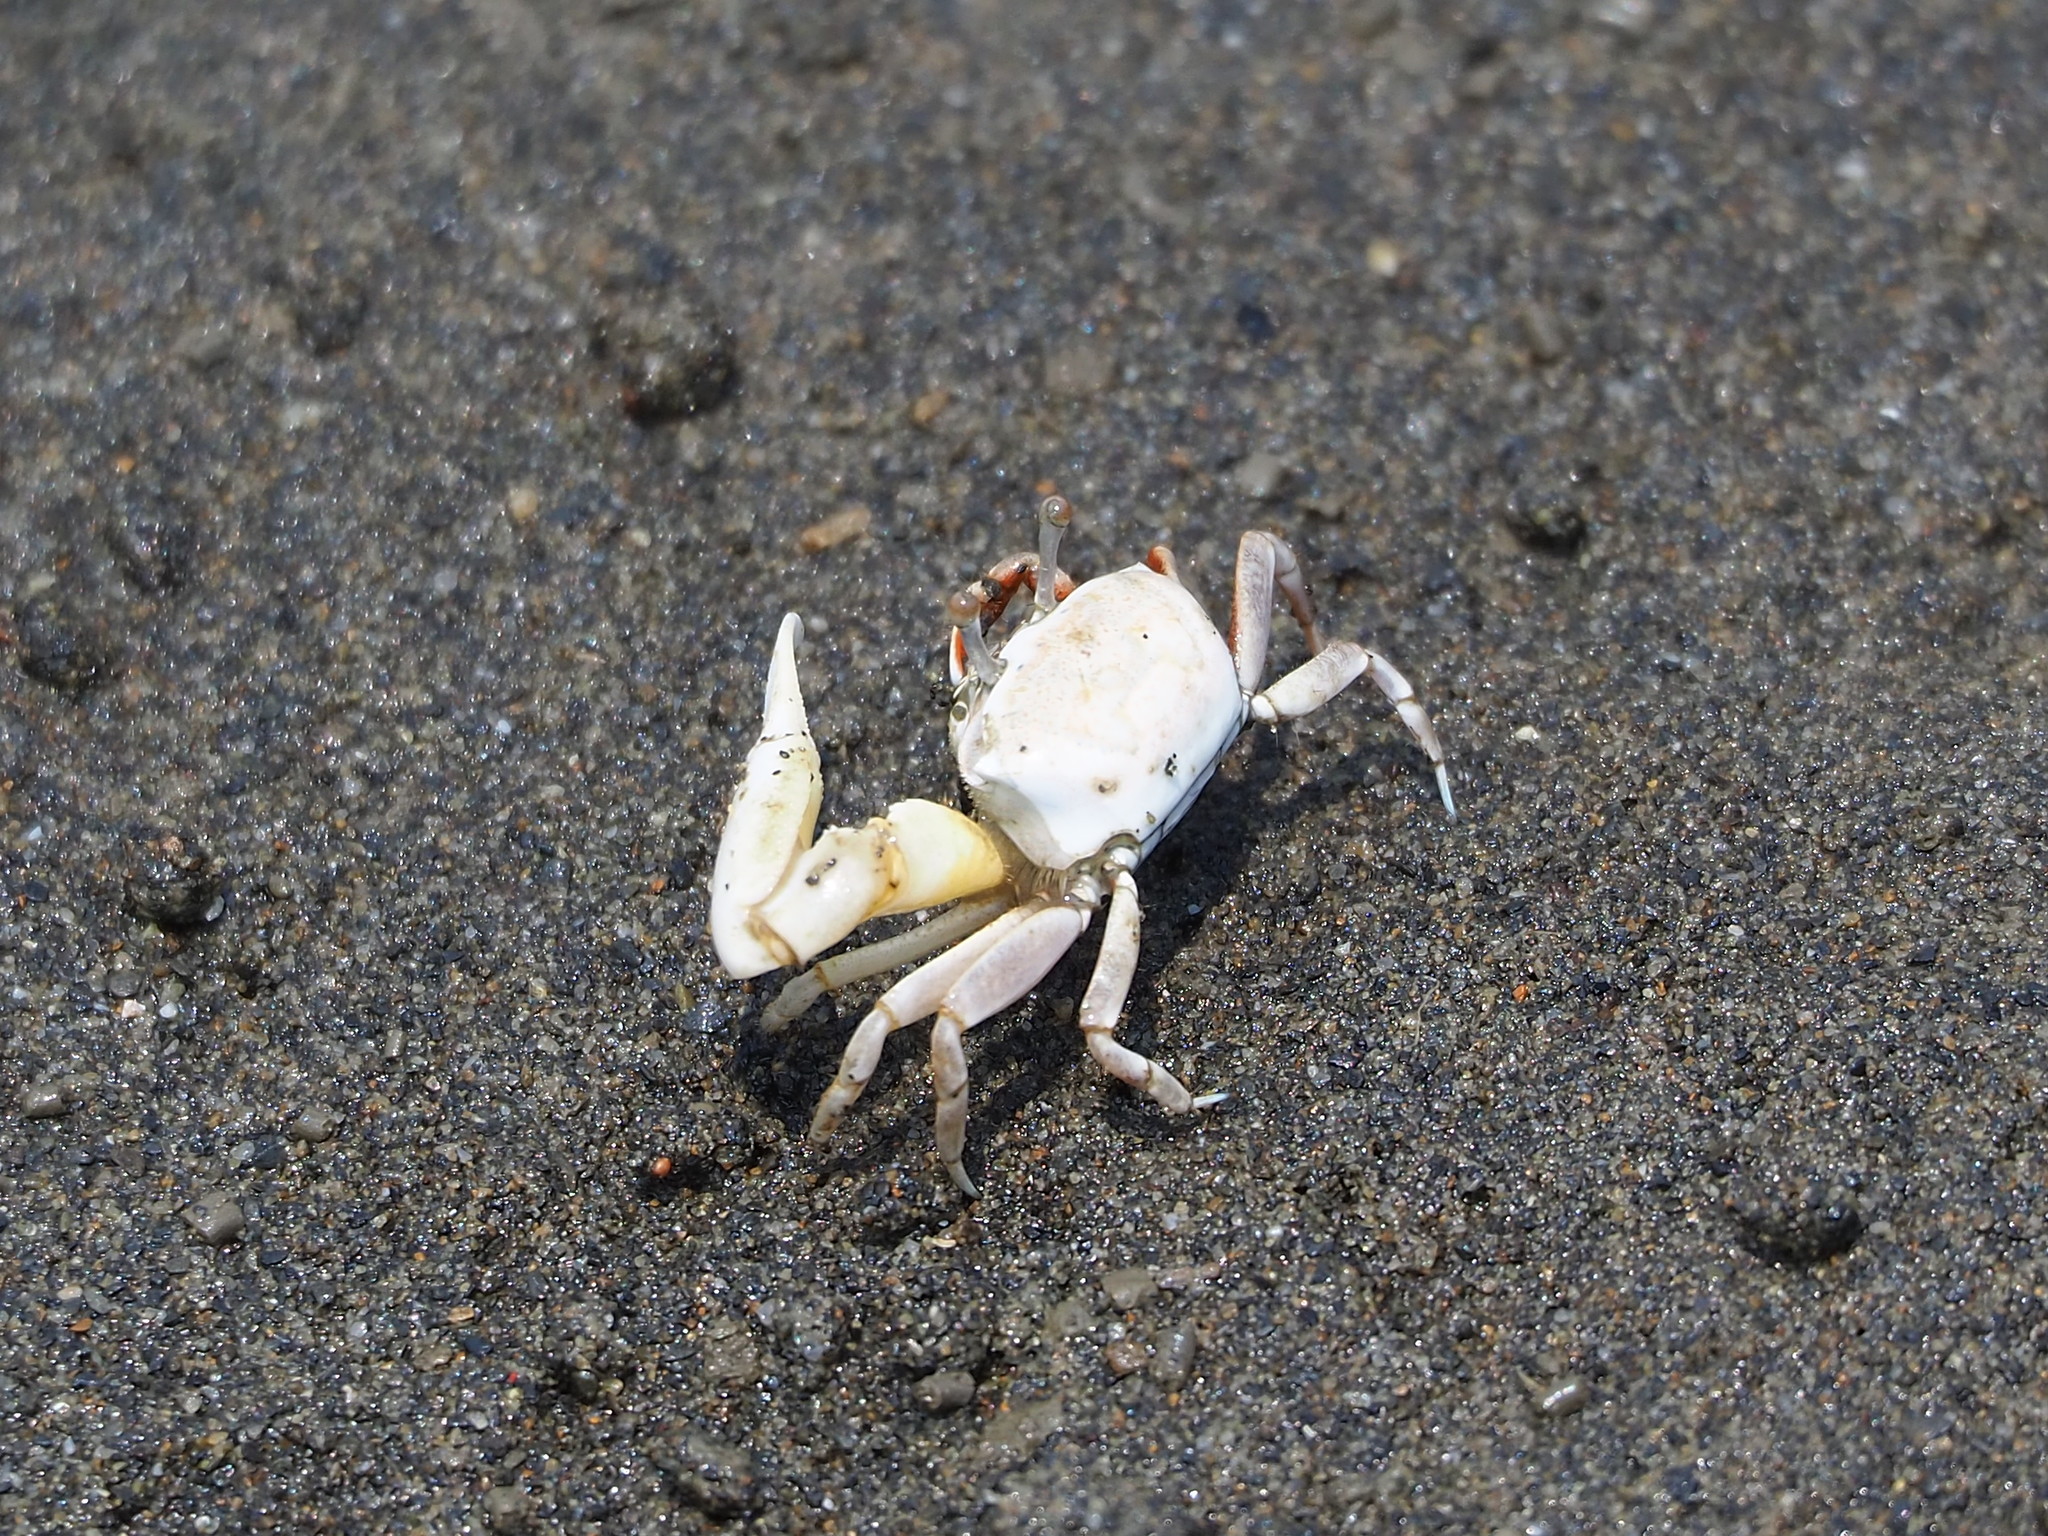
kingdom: Animalia
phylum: Arthropoda
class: Malacostraca
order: Decapoda
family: Ocypodidae
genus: Austruca
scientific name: Austruca lactea
